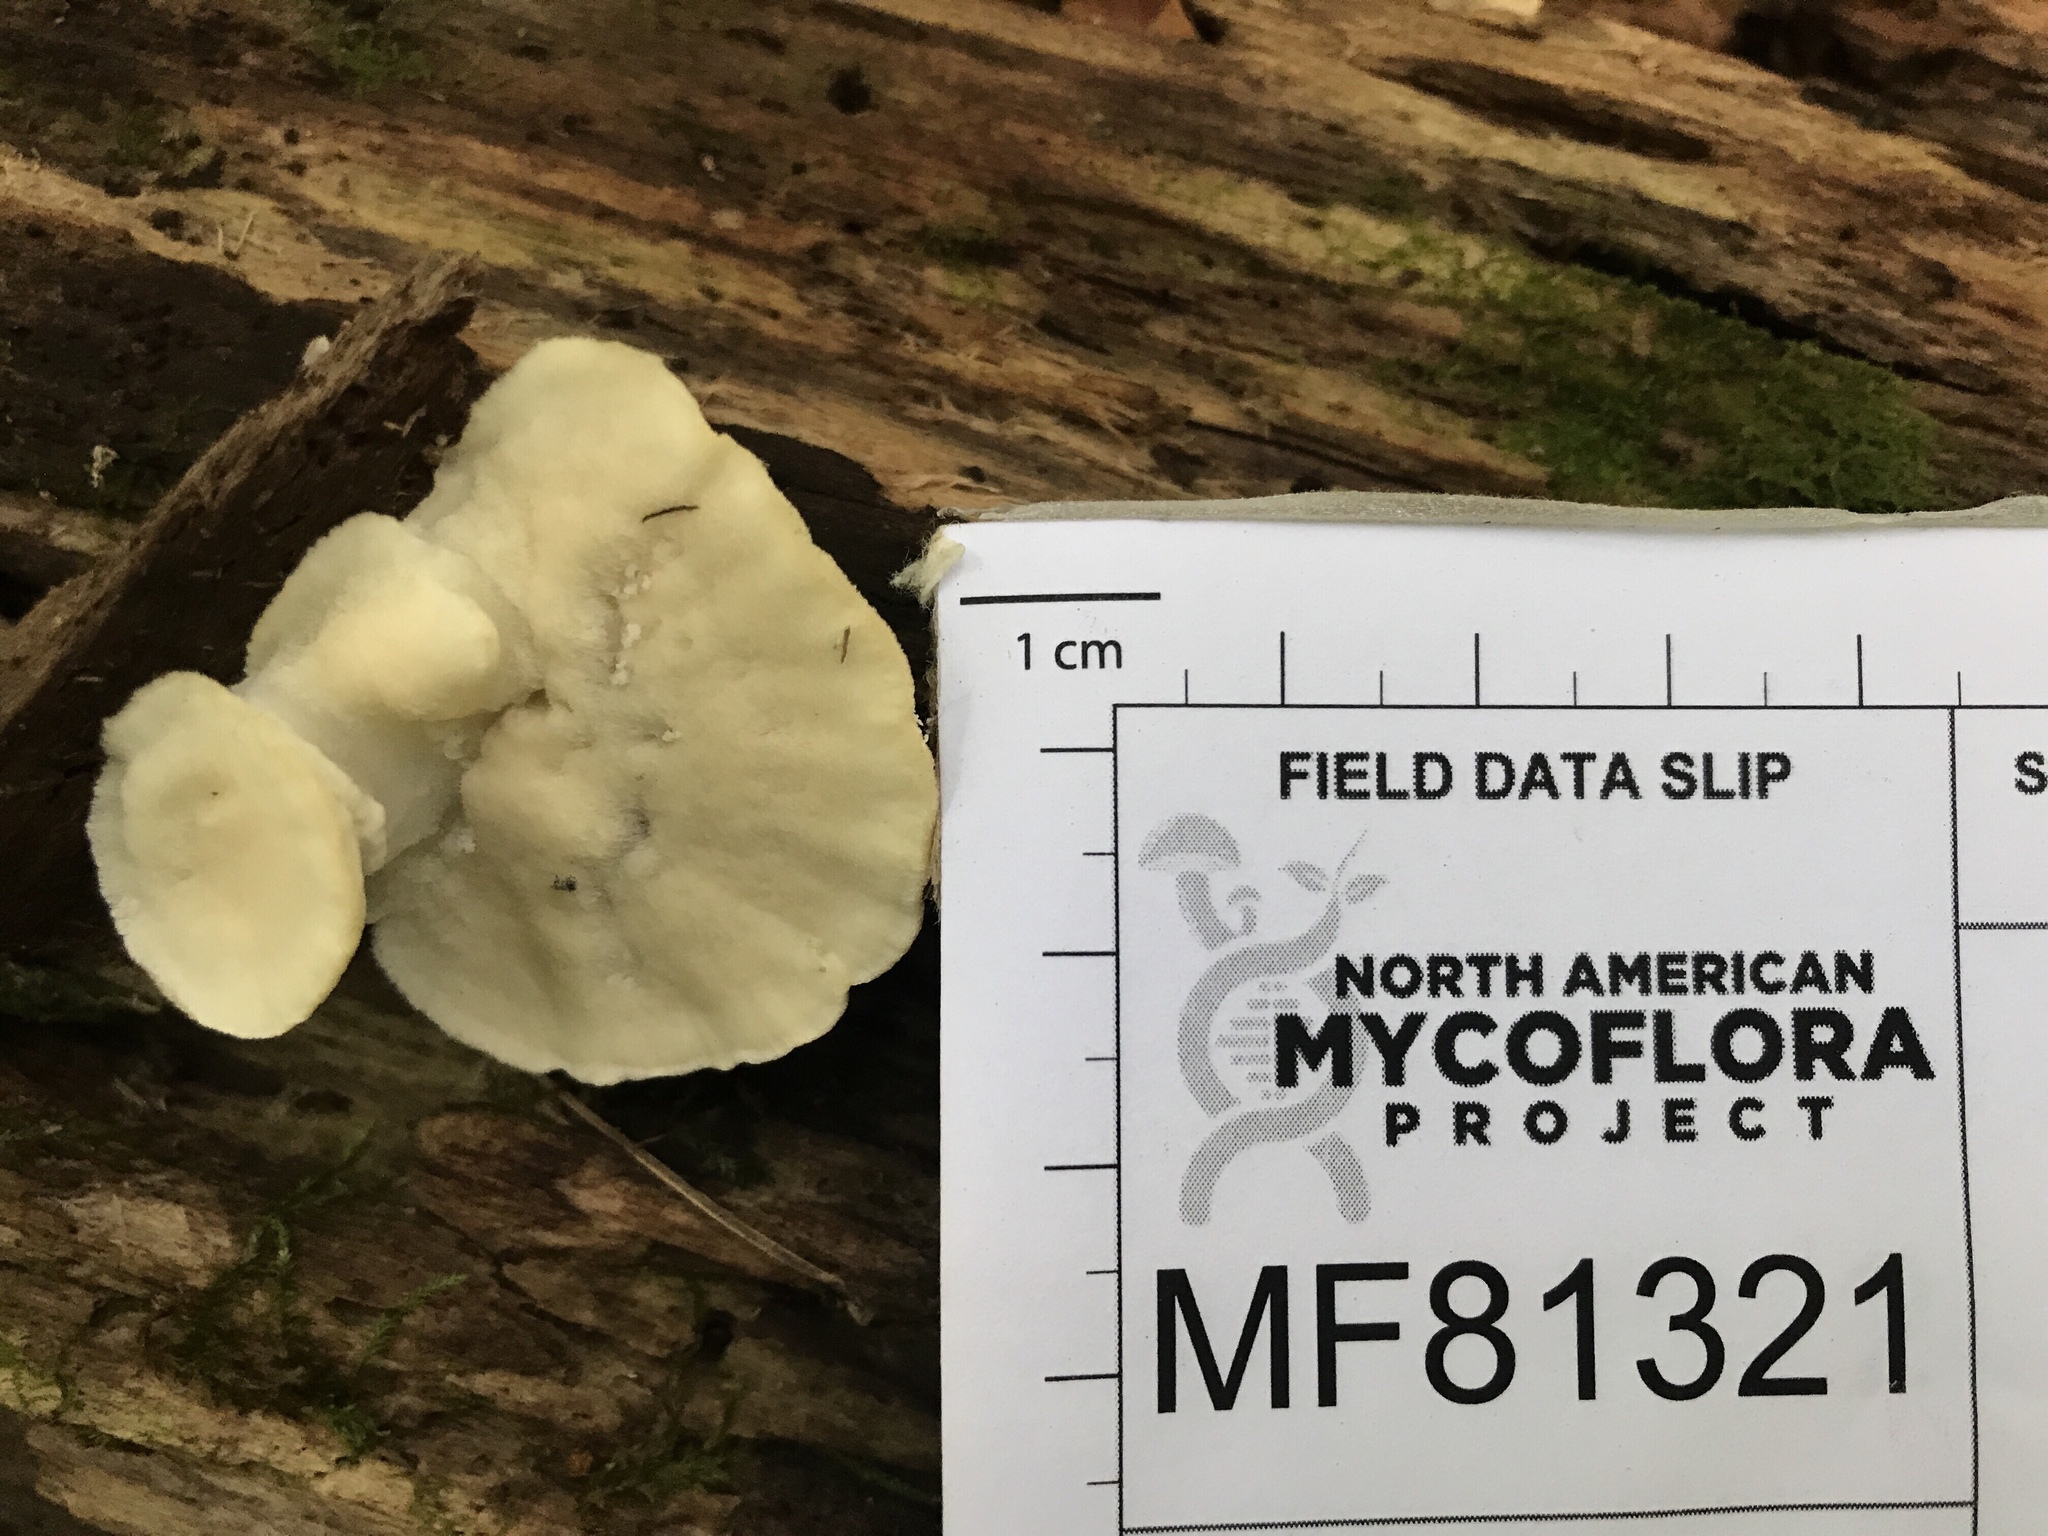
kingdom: Fungi
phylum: Basidiomycota
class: Agaricomycetes
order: Polyporales
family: Incrustoporiaceae
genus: Tyromyces
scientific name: Tyromyces galactinus
